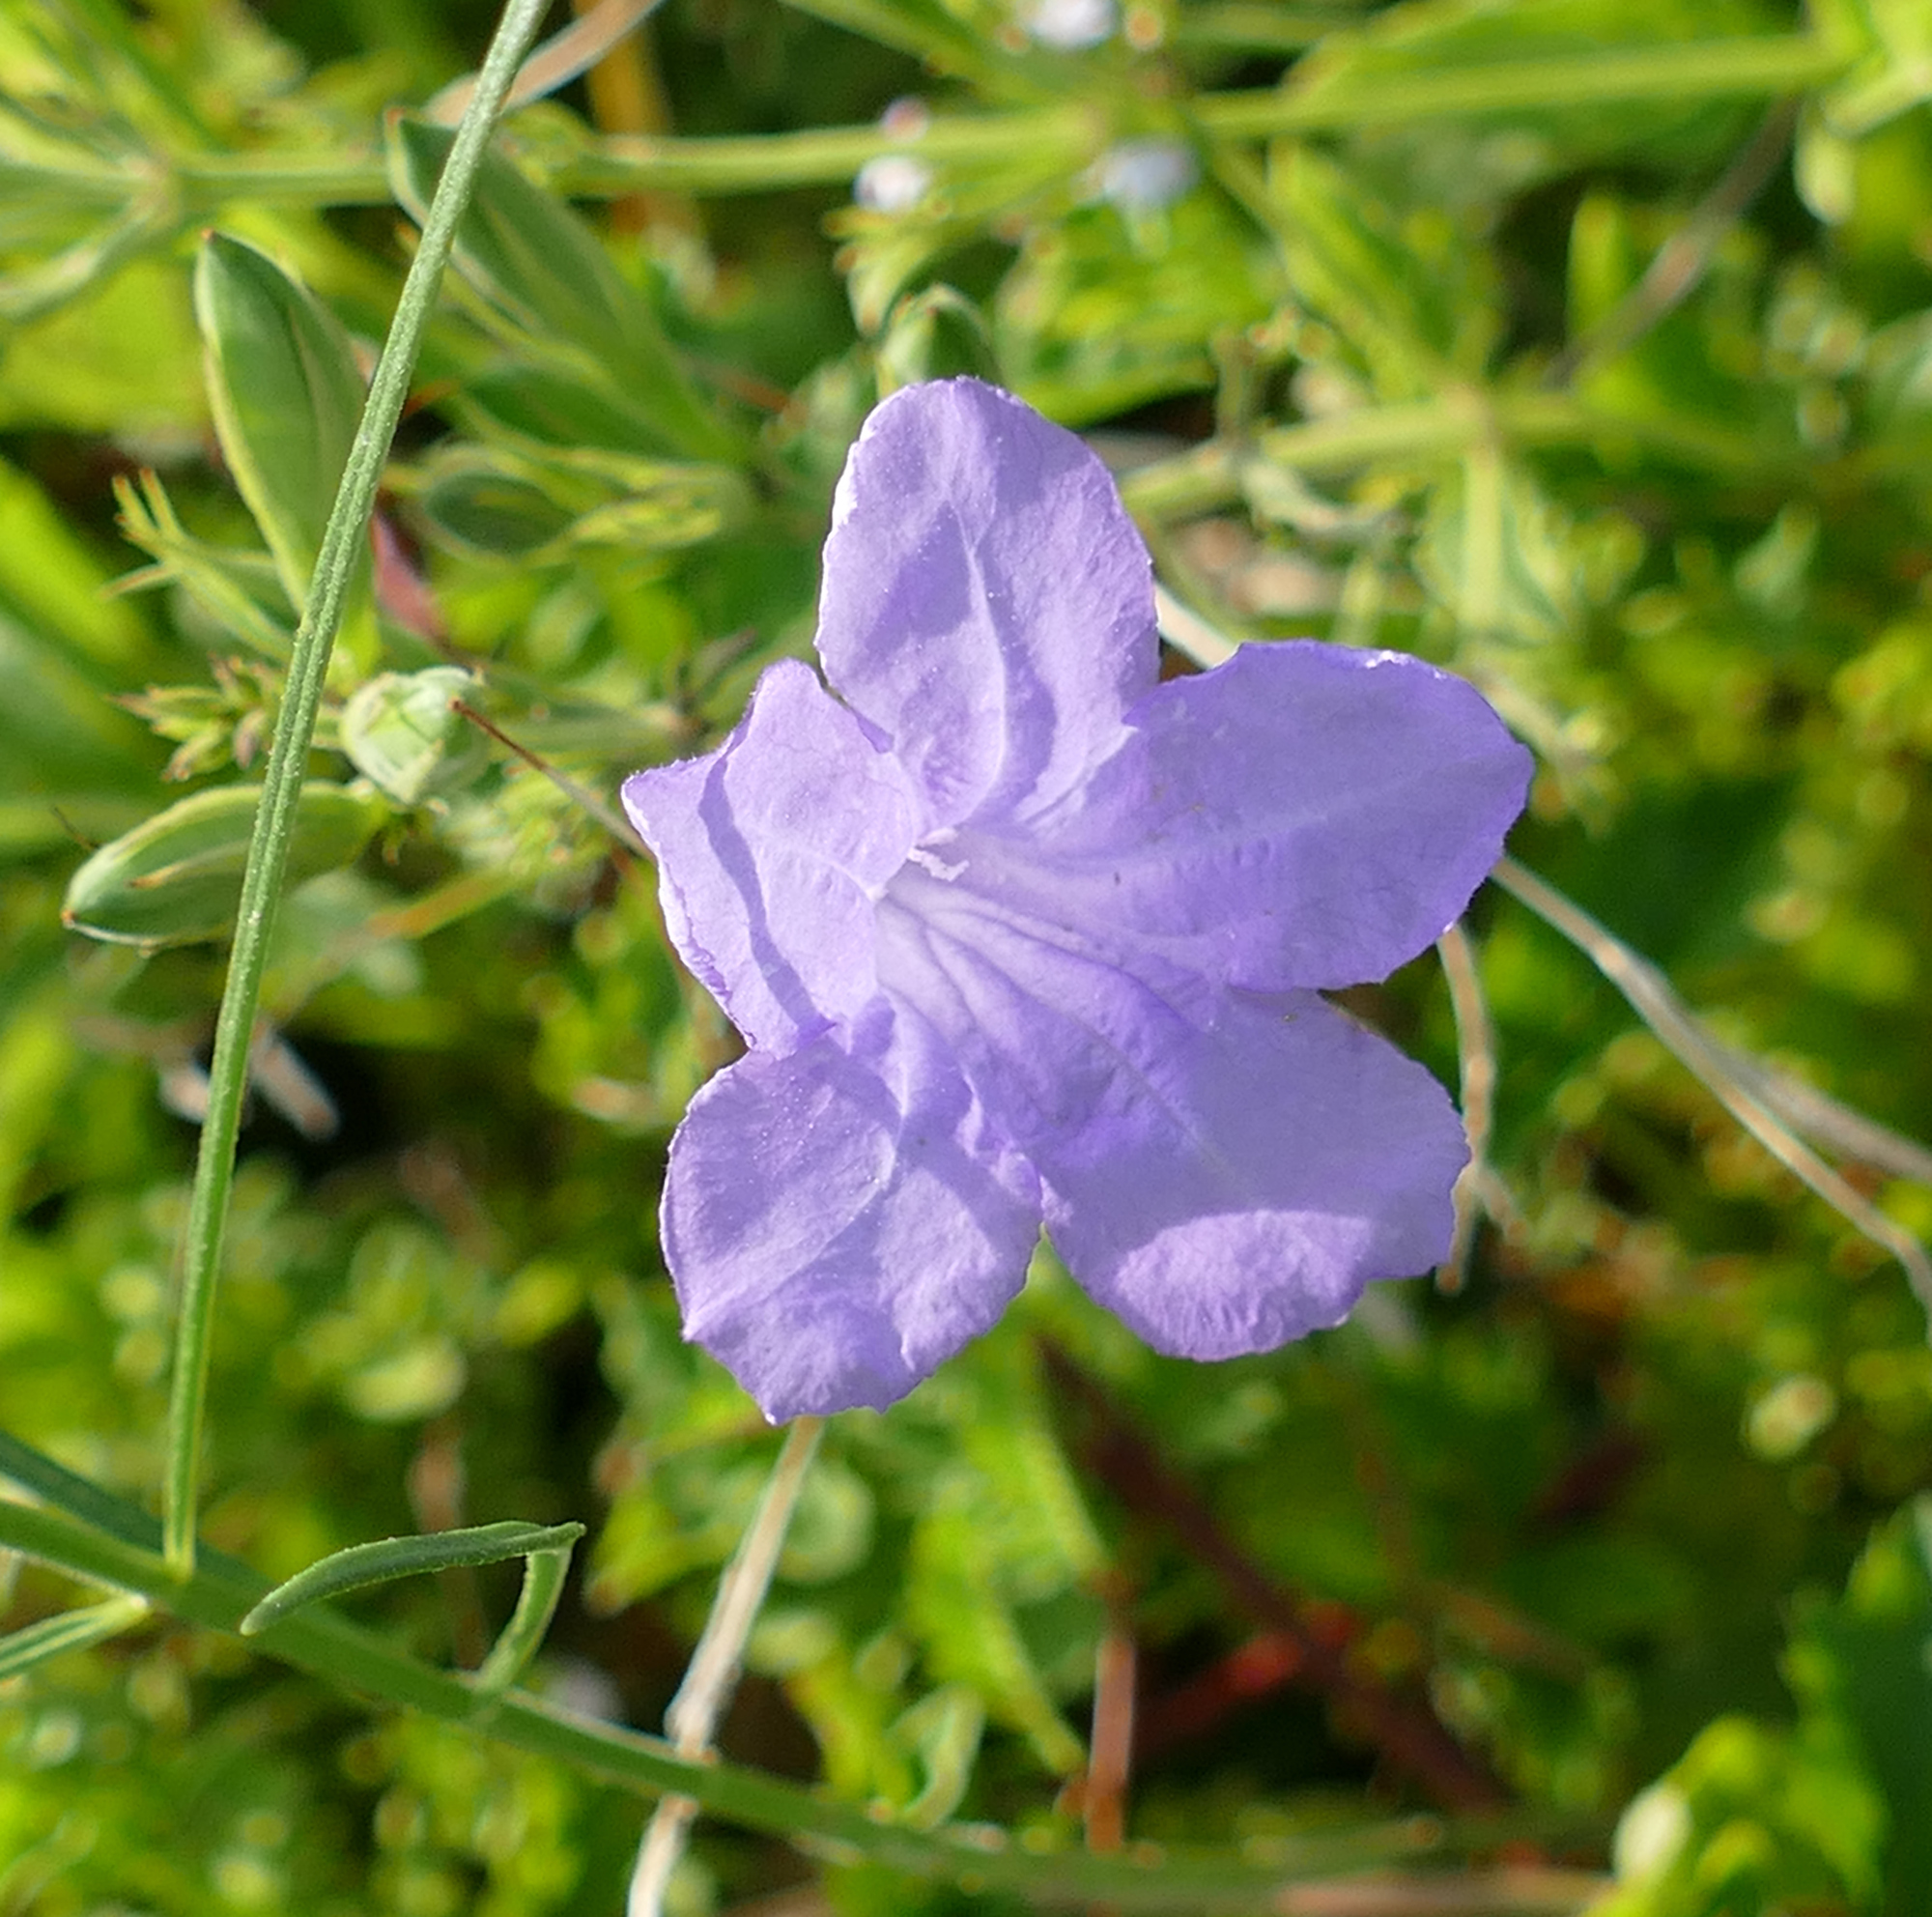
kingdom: Plantae
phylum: Tracheophyta
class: Magnoliopsida
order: Lamiales
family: Acanthaceae
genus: Ruellia
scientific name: Ruellia ciliatiflora
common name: Hairyflower wild petunia
